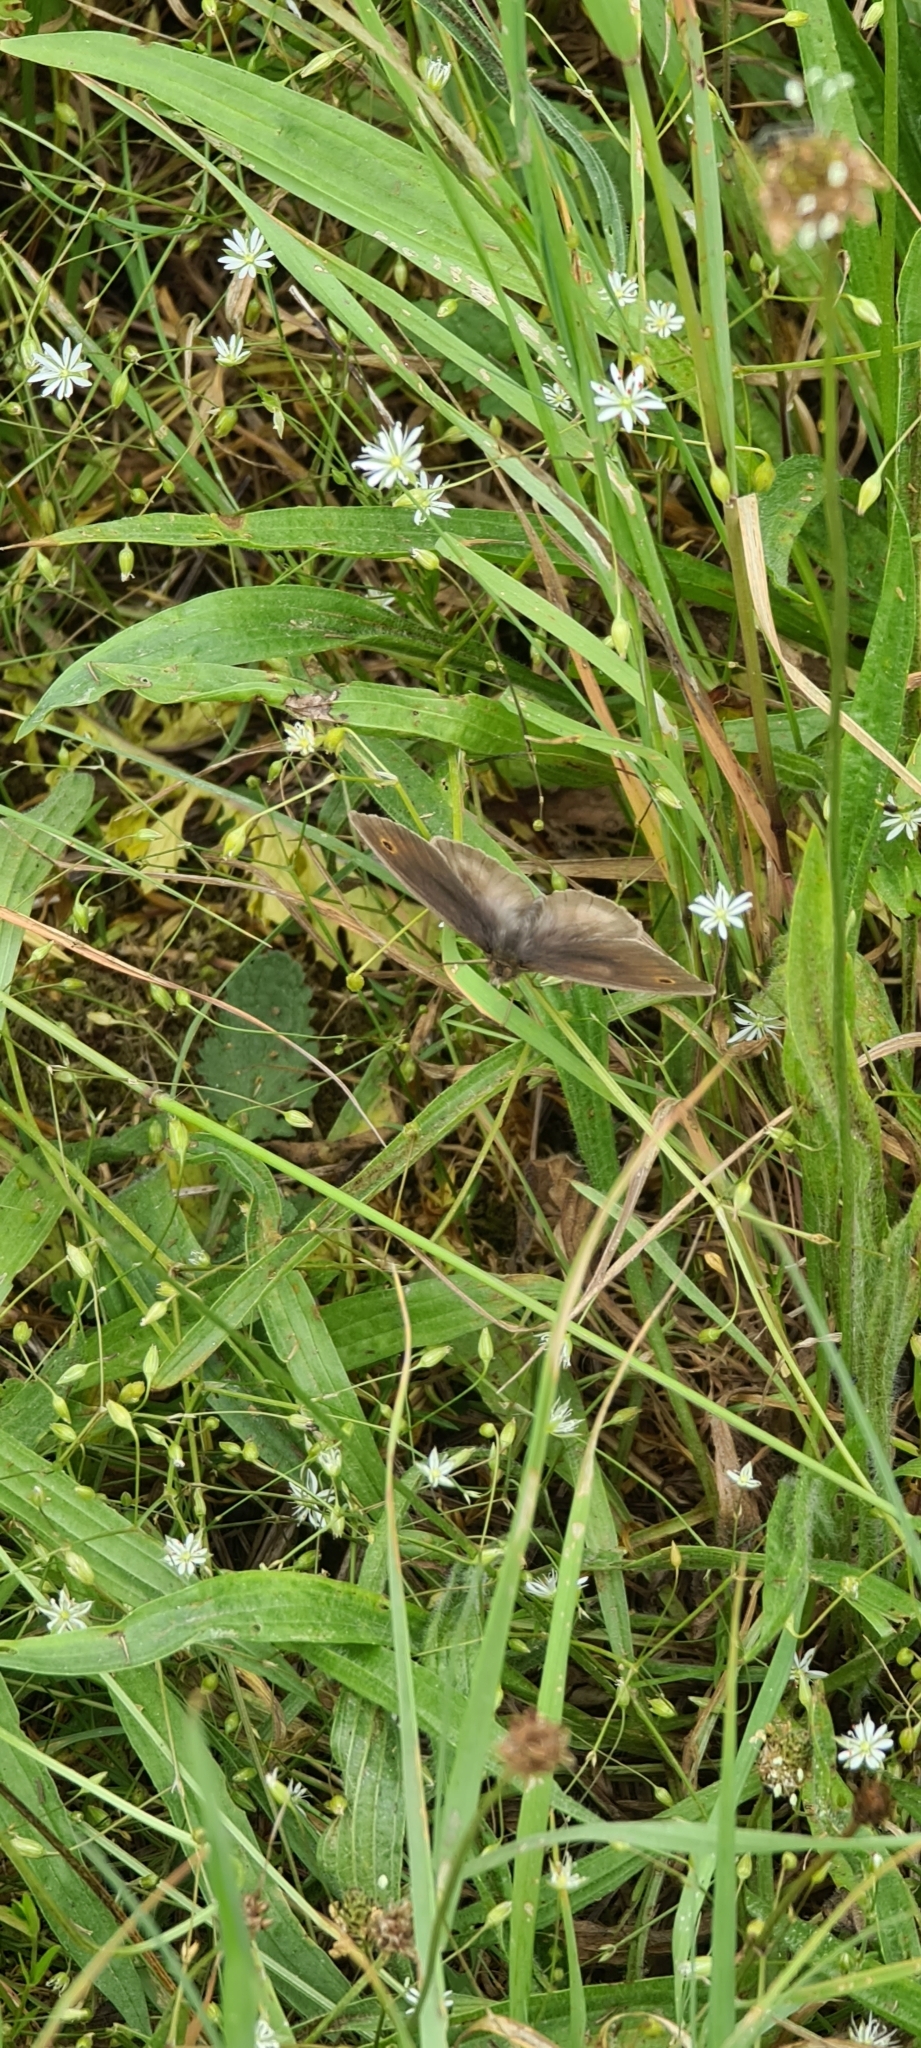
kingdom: Animalia
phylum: Arthropoda
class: Insecta
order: Lepidoptera
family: Nymphalidae
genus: Maniola
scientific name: Maniola jurtina
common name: Meadow brown
